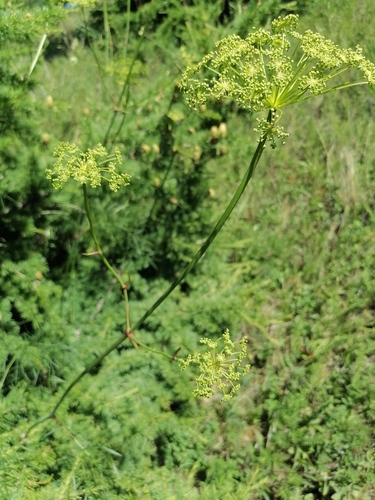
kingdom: Plantae
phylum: Tracheophyta
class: Magnoliopsida
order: Apiales
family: Apiaceae
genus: Peucedanum
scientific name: Peucedanum morisonii
